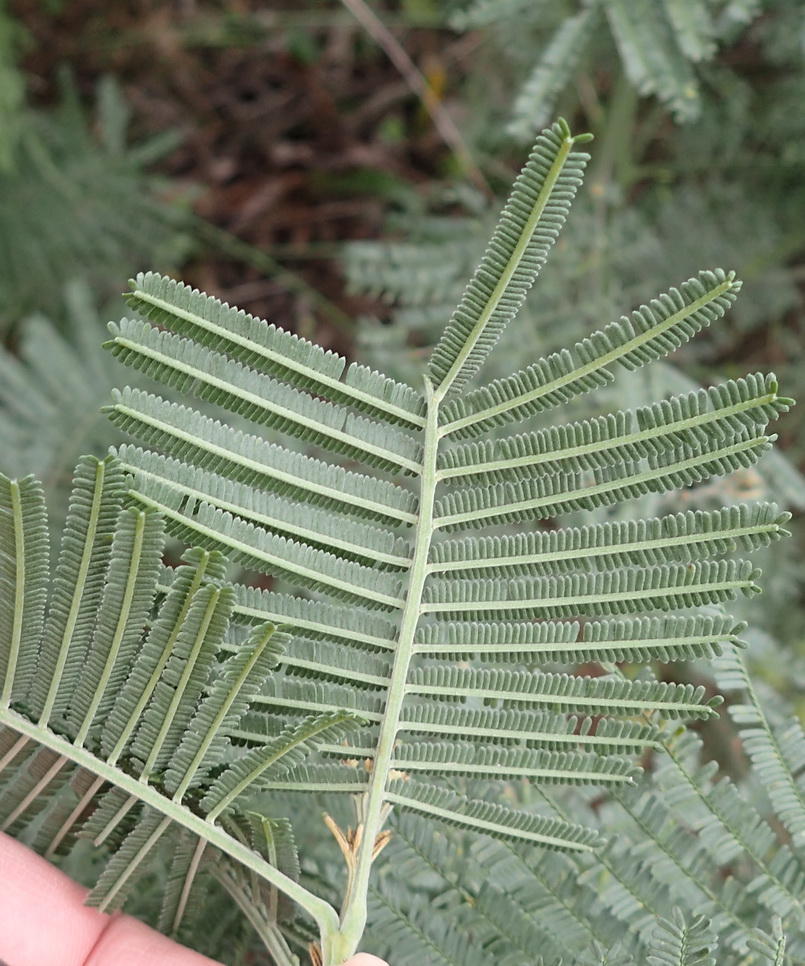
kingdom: Plantae
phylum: Tracheophyta
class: Magnoliopsida
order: Fabales
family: Fabaceae
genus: Acacia
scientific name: Acacia mearnsii
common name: Black wattle
